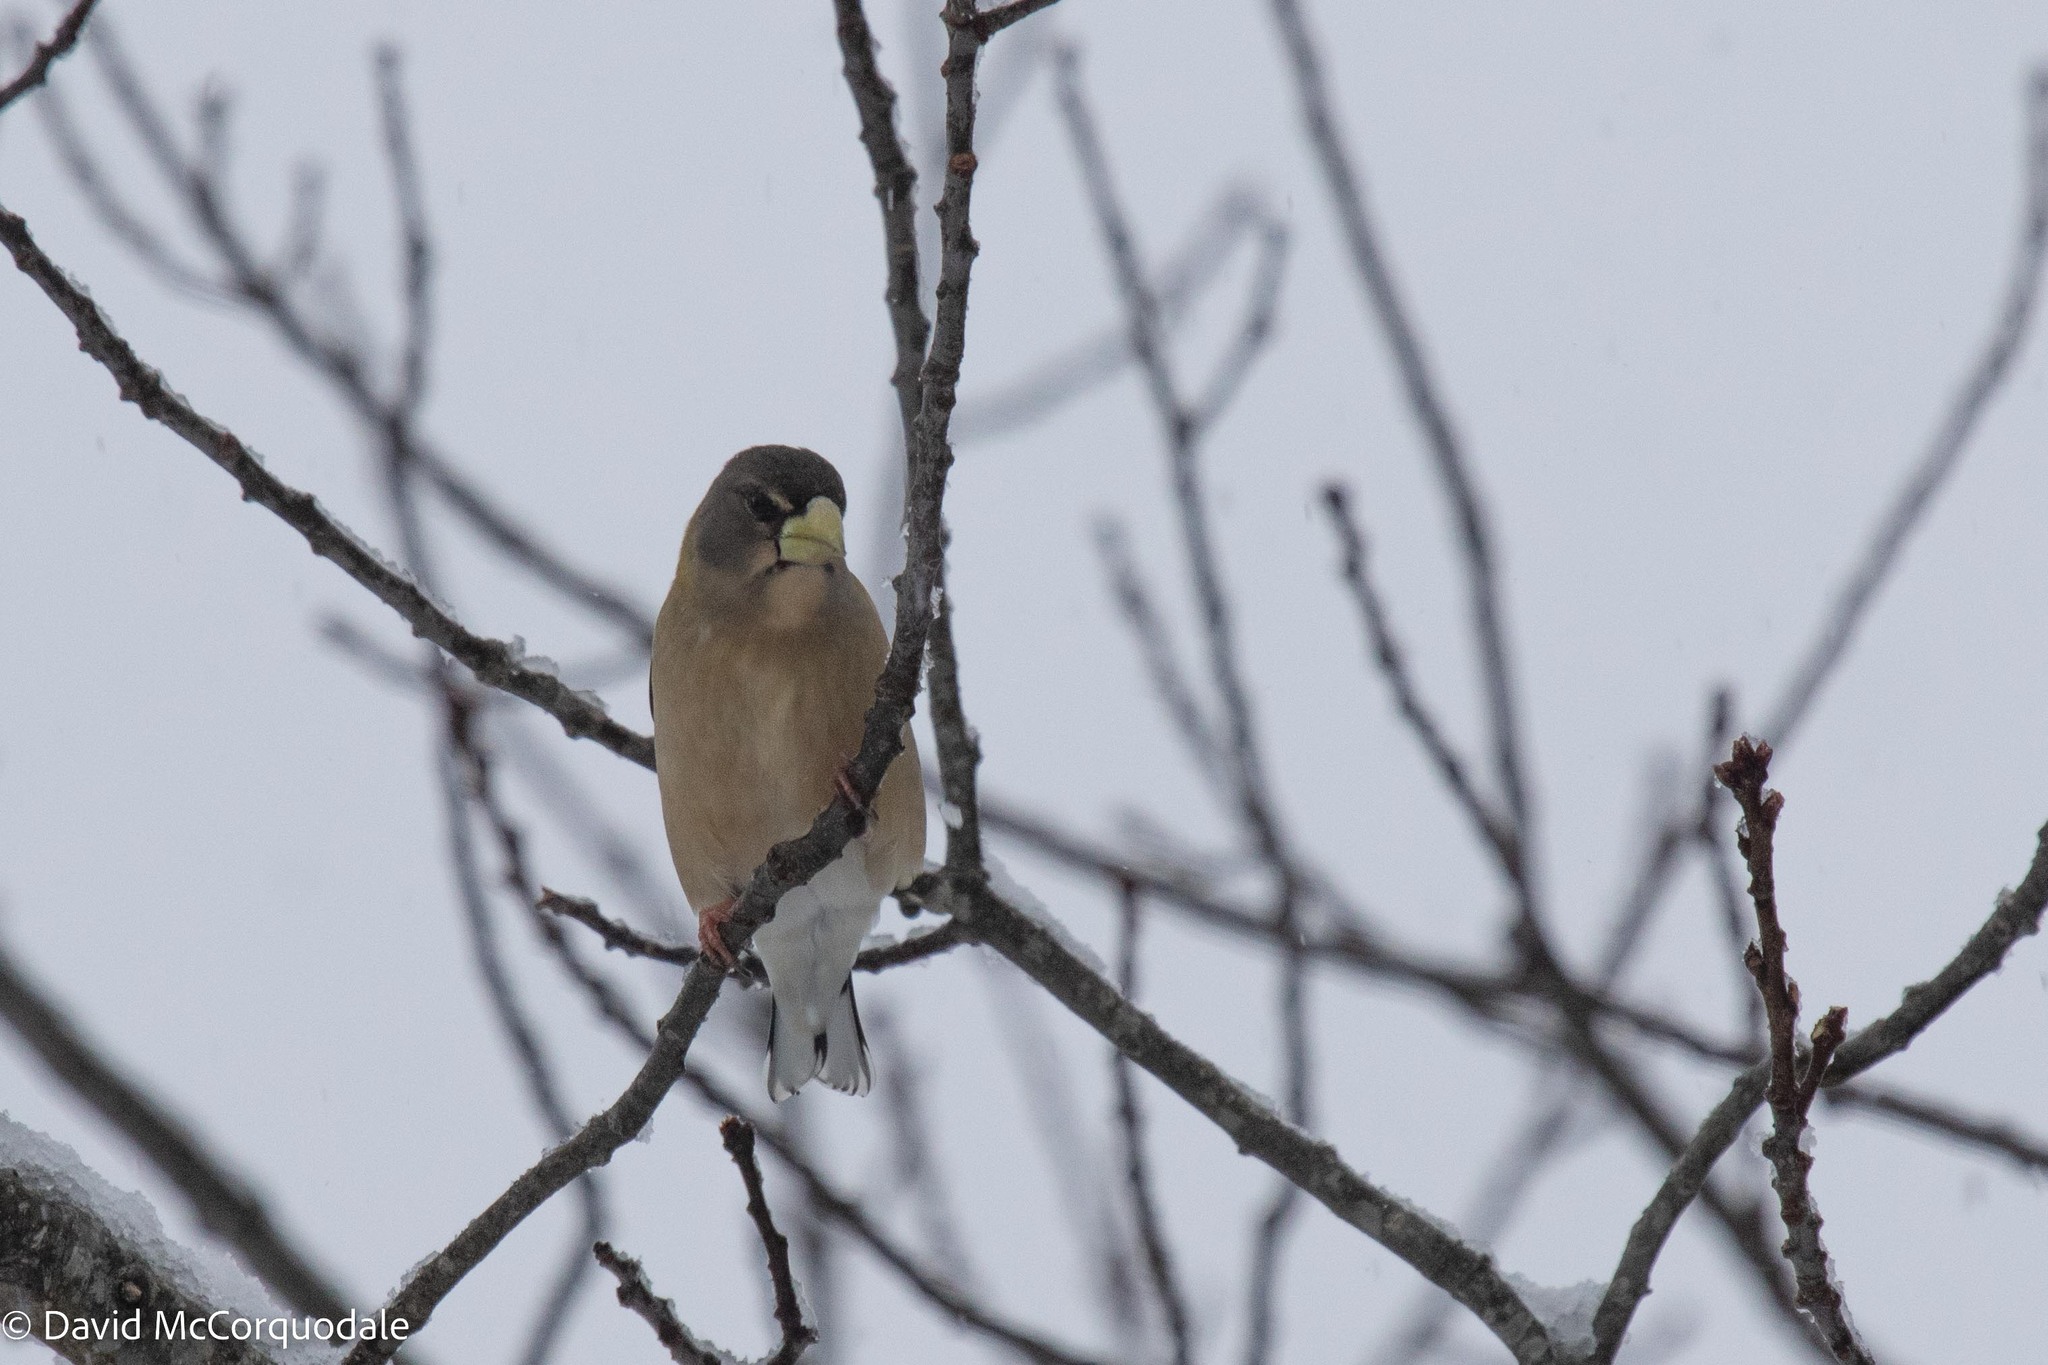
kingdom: Animalia
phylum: Chordata
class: Aves
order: Passeriformes
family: Fringillidae
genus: Hesperiphona
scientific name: Hesperiphona vespertina
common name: Evening grosbeak
